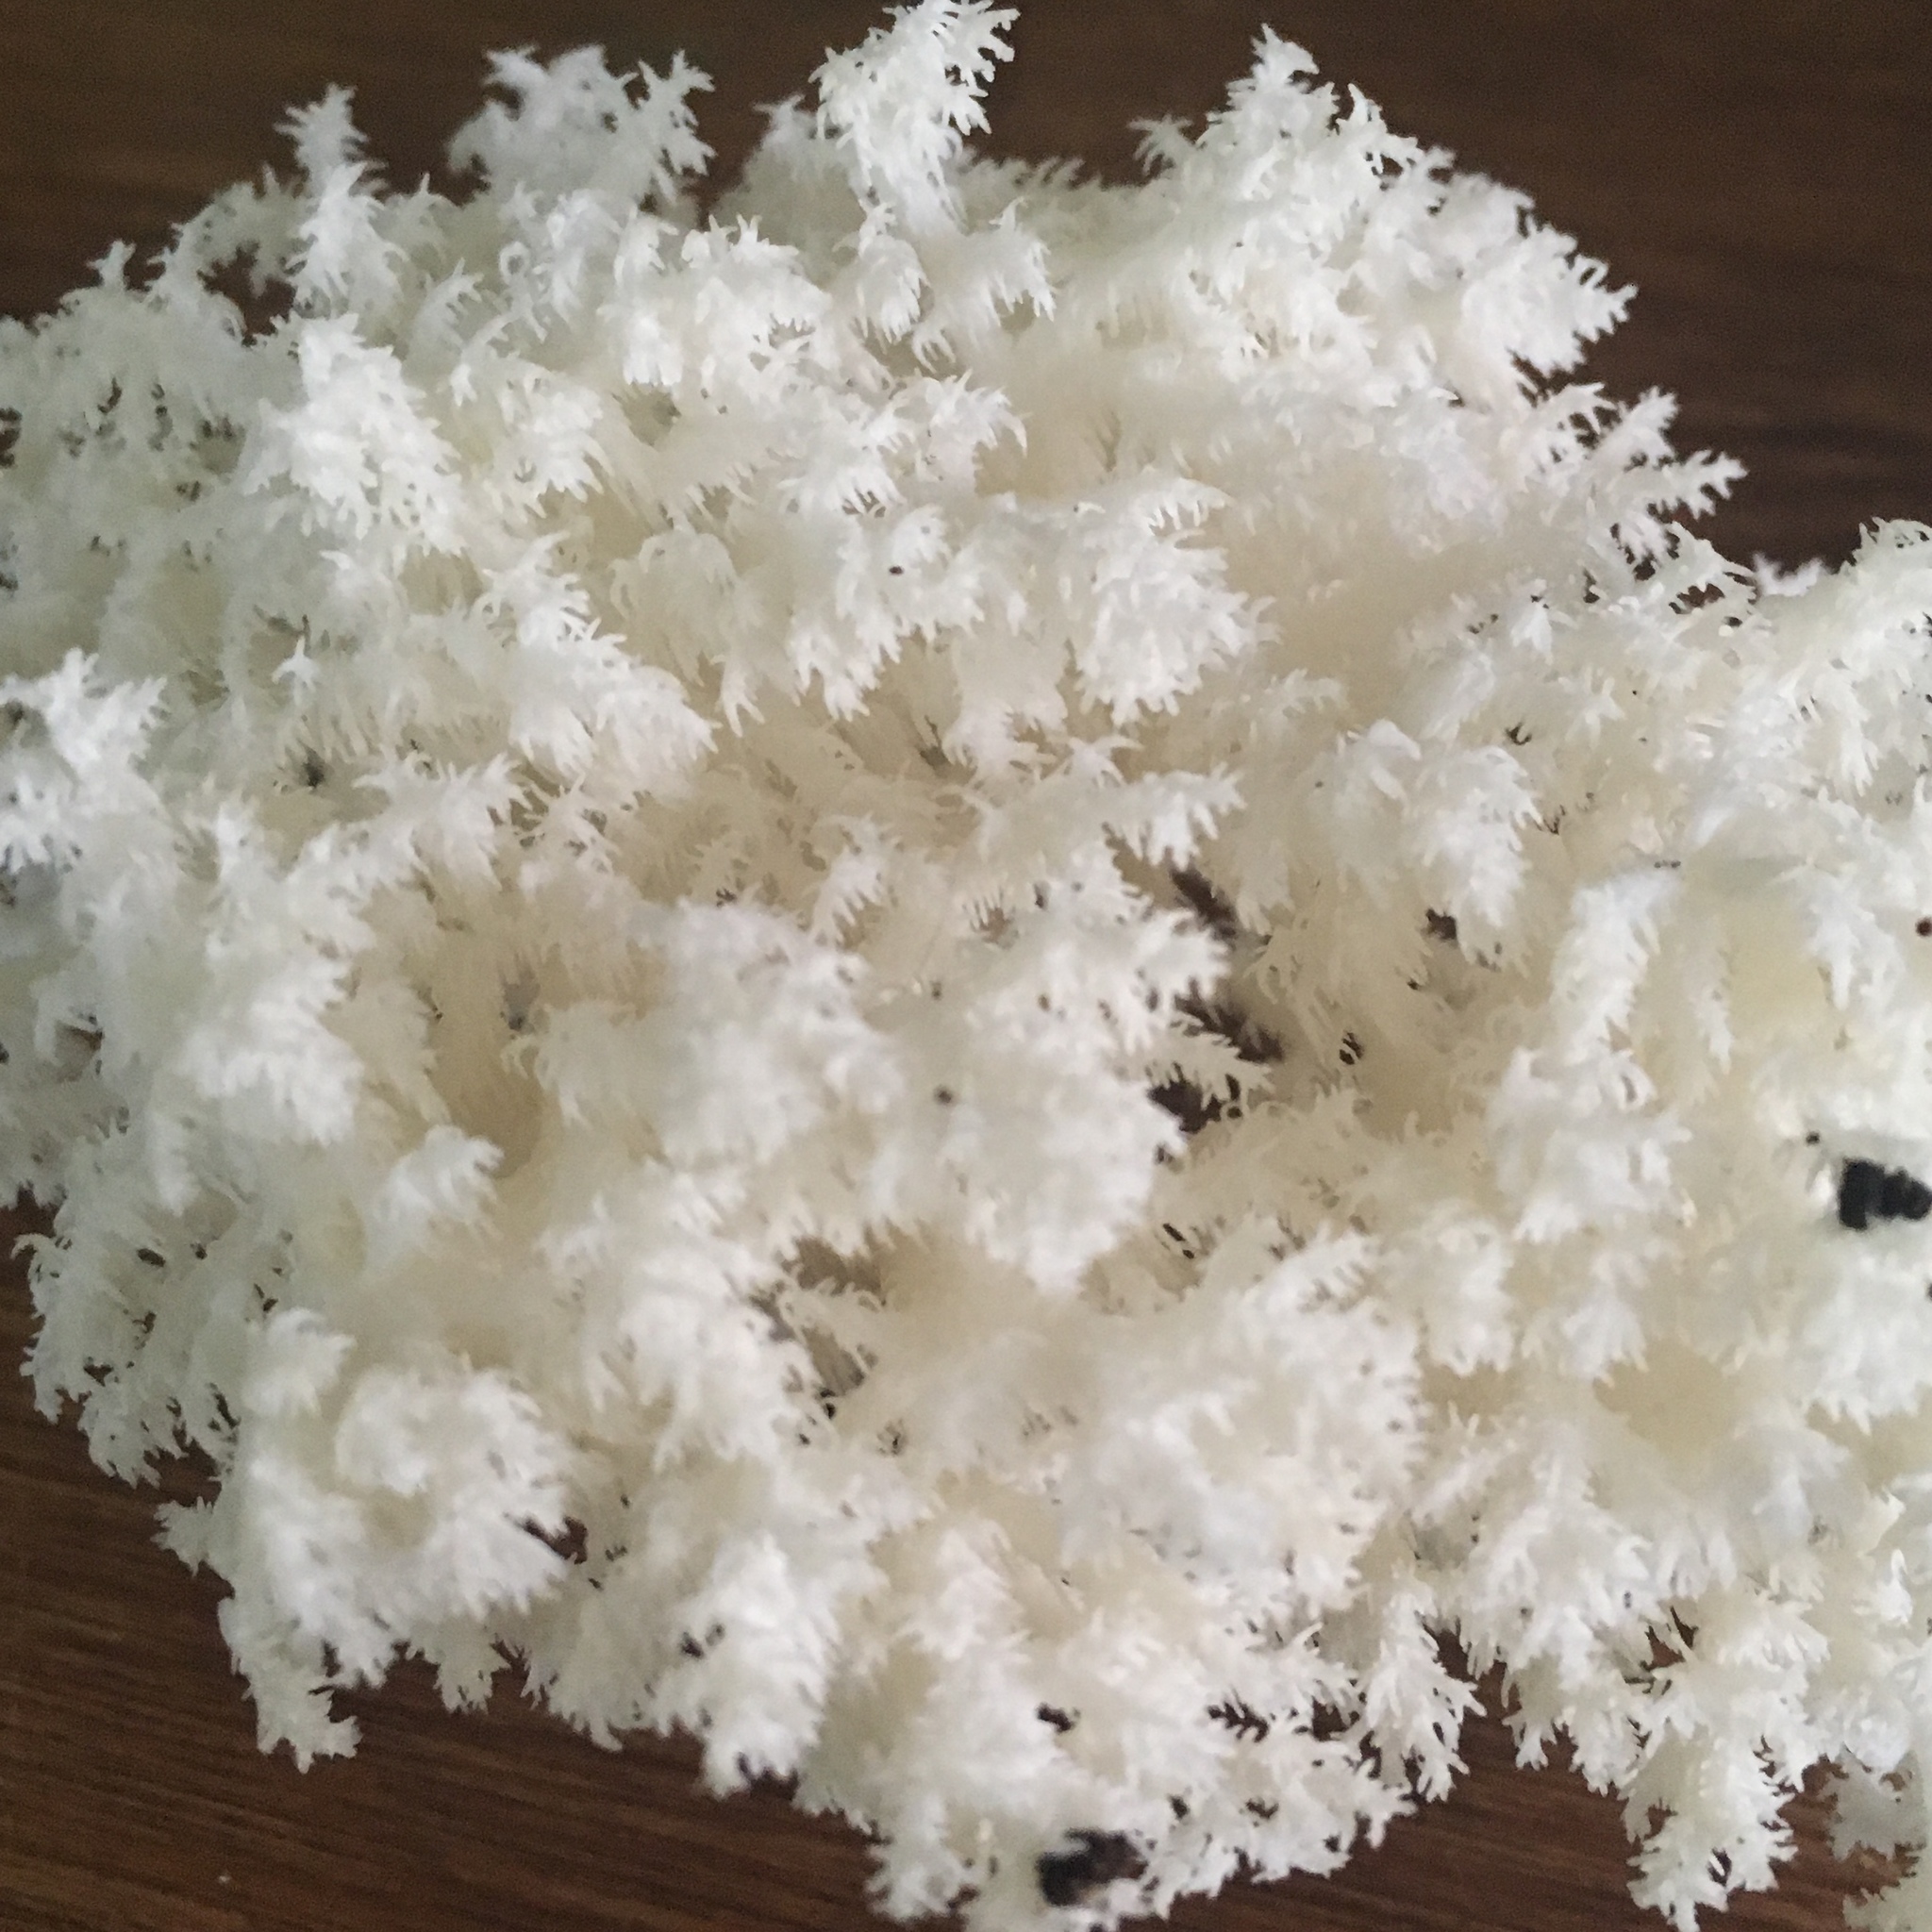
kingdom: Fungi
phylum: Basidiomycota
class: Agaricomycetes
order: Russulales
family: Hericiaceae
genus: Hericium
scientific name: Hericium coralloides
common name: Coral tooth
